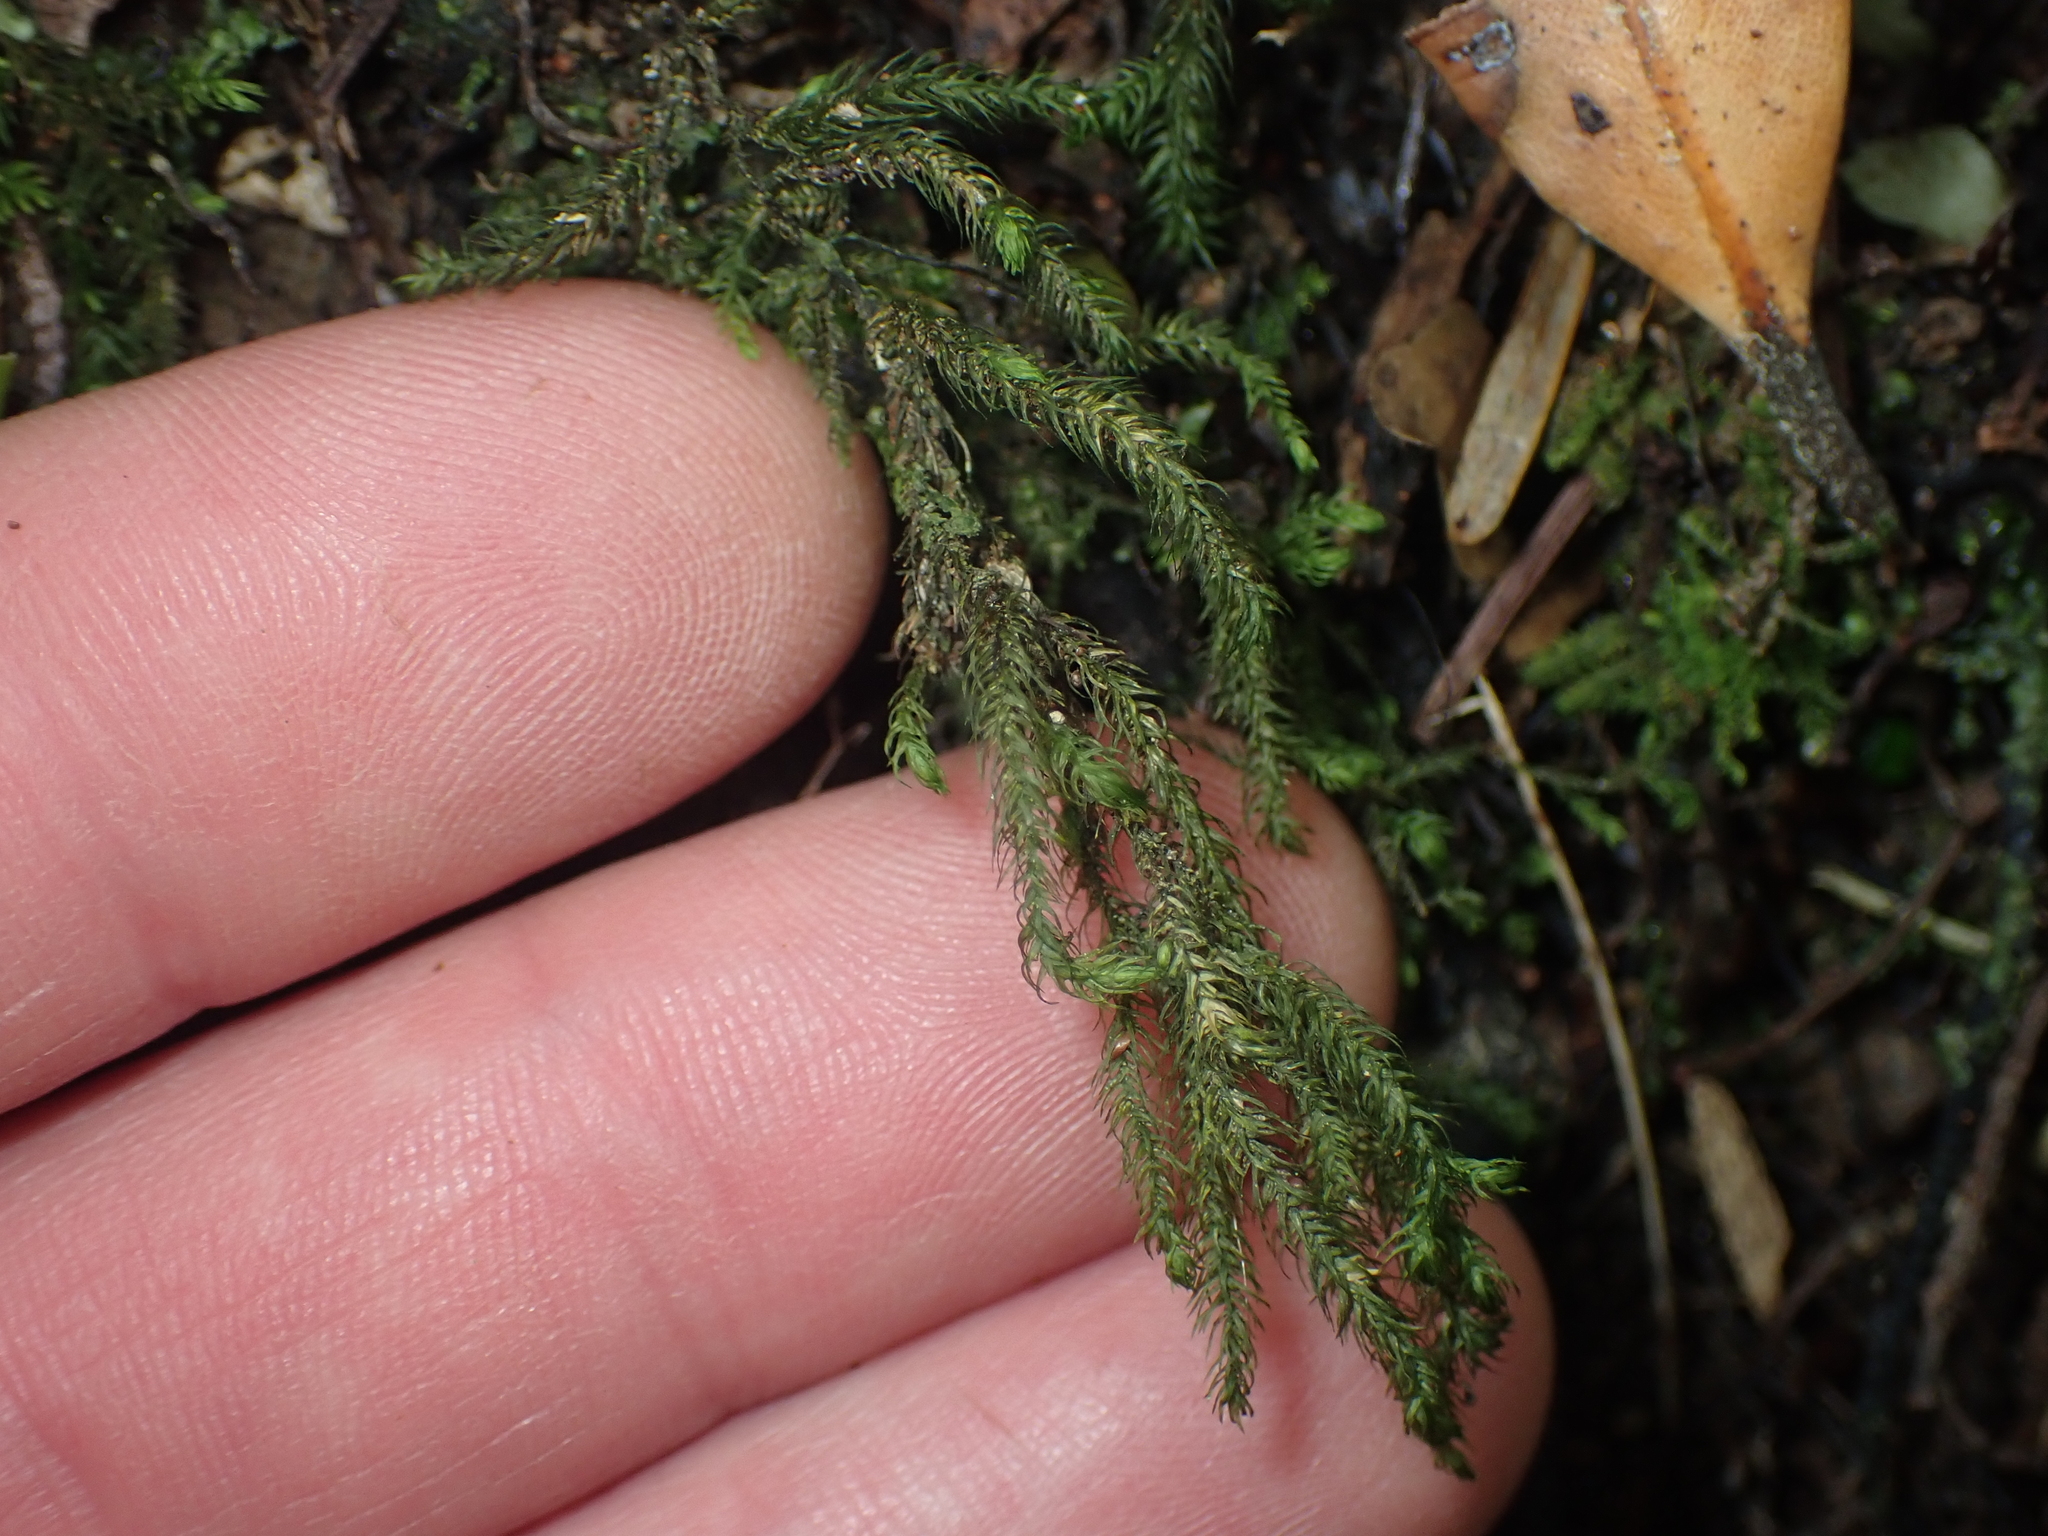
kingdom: Plantae
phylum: Bryophyta
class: Bryopsida
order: Hypnales
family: Neckeraceae
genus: Echinodiopsis
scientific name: Echinodiopsis hispida
